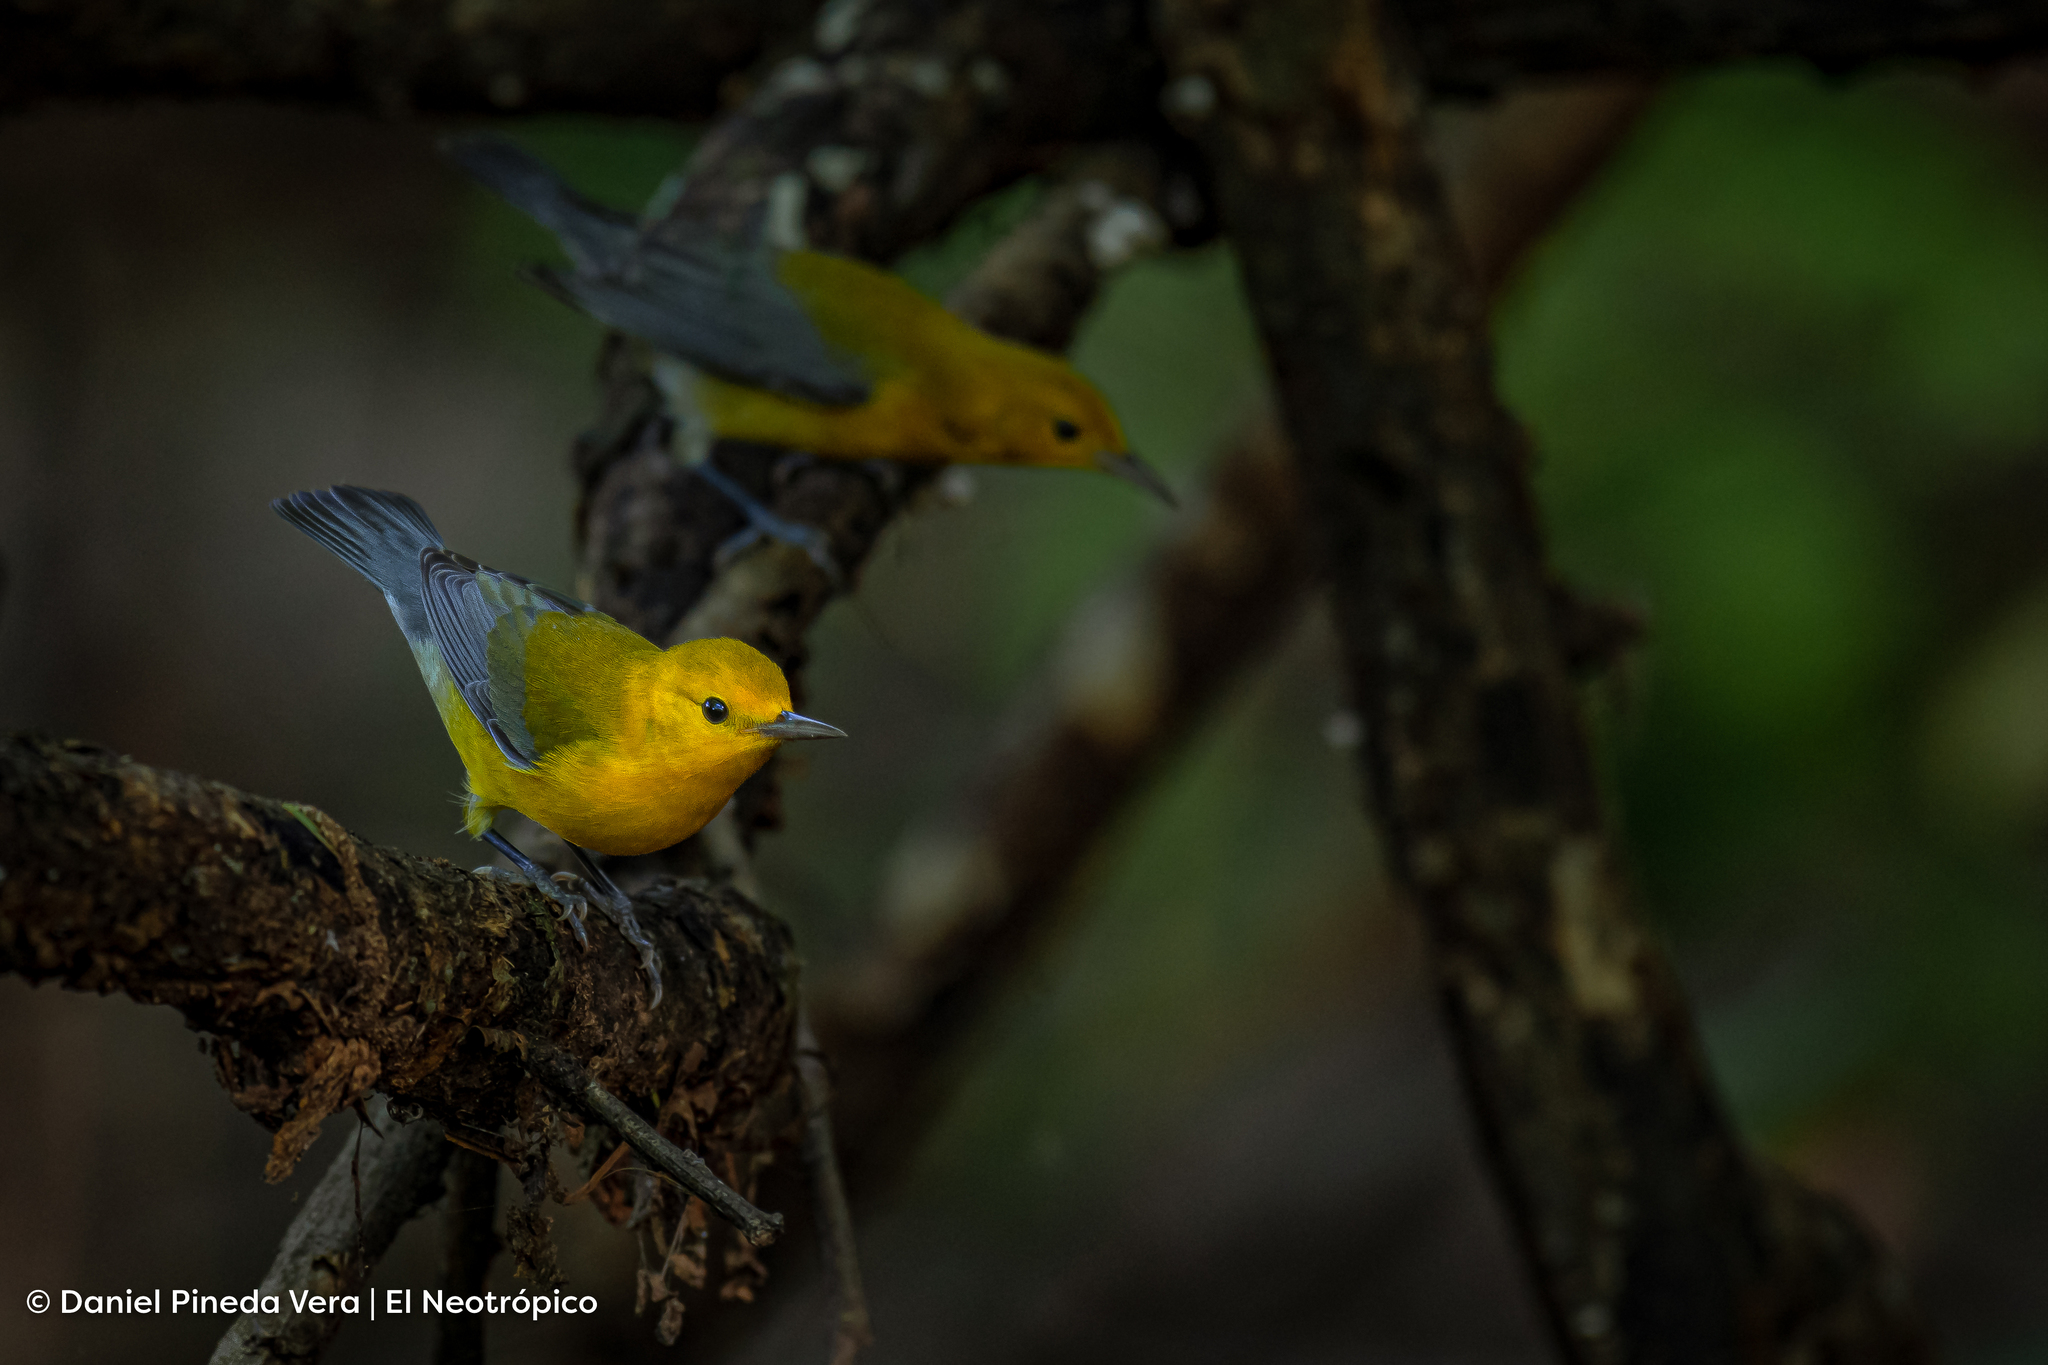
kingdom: Animalia
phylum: Chordata
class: Aves
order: Passeriformes
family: Parulidae
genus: Protonotaria
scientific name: Protonotaria citrea
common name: Prothonotary warbler
